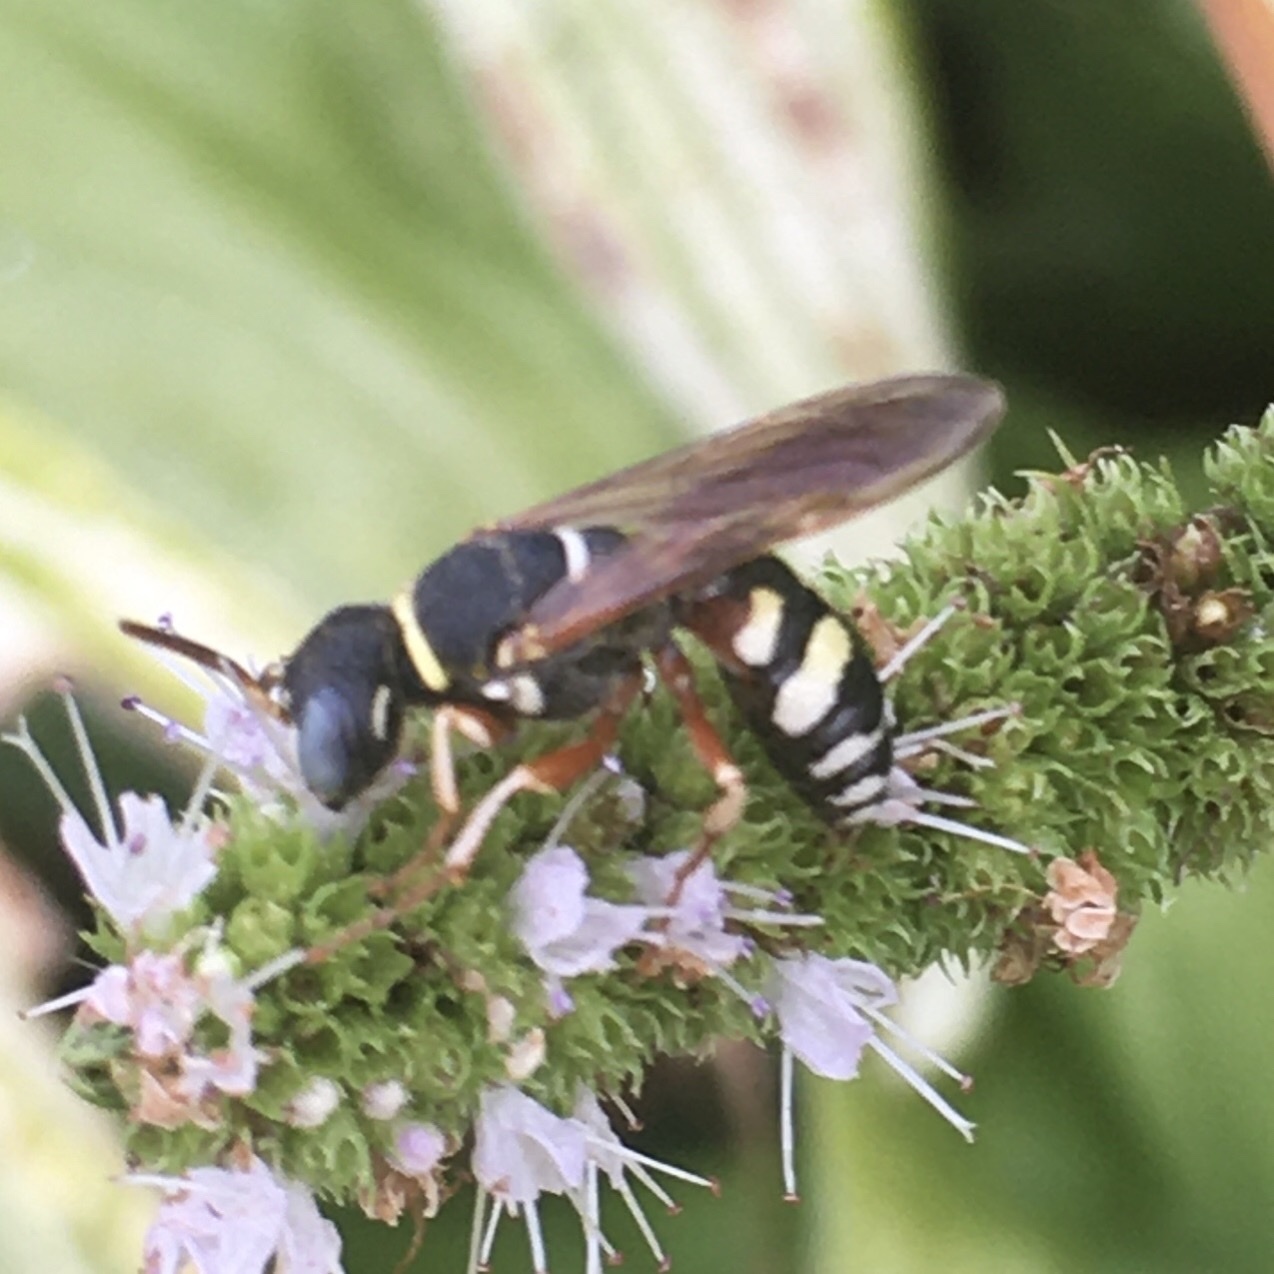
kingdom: Animalia
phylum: Arthropoda
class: Insecta
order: Hymenoptera
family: Crabronidae
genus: Philanthus
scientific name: Philanthus ventilabris
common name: Bee-killer wasp
